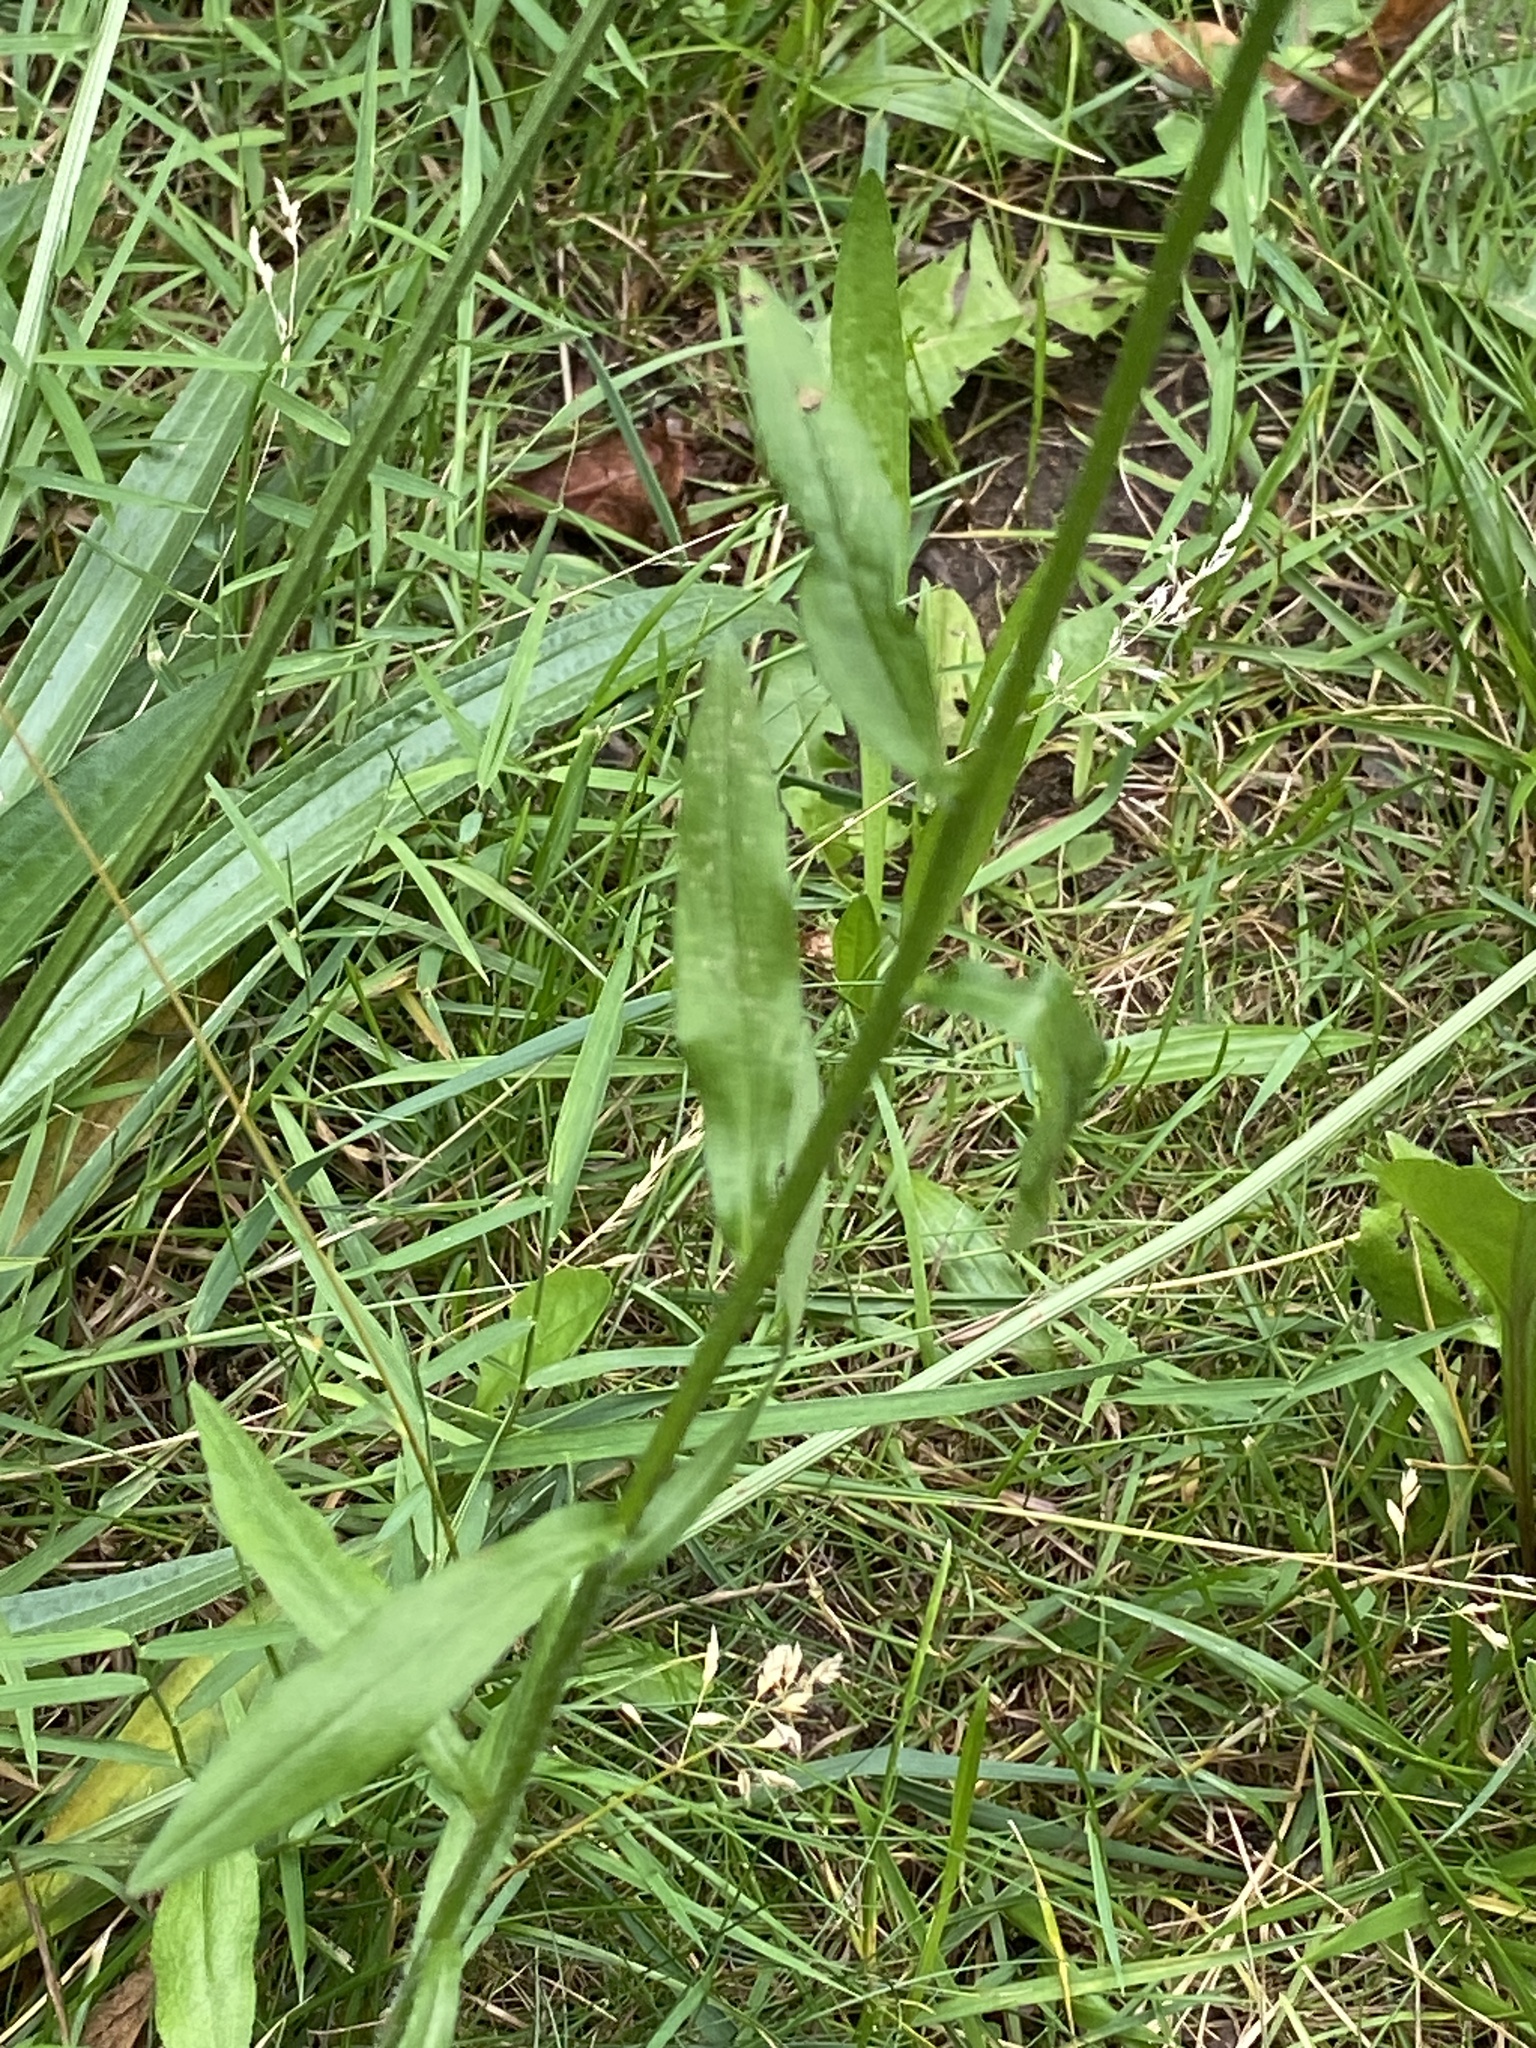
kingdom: Plantae
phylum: Tracheophyta
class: Magnoliopsida
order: Asterales
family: Asteraceae
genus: Erigeron
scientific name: Erigeron strigosus
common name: Common eastern fleabane
